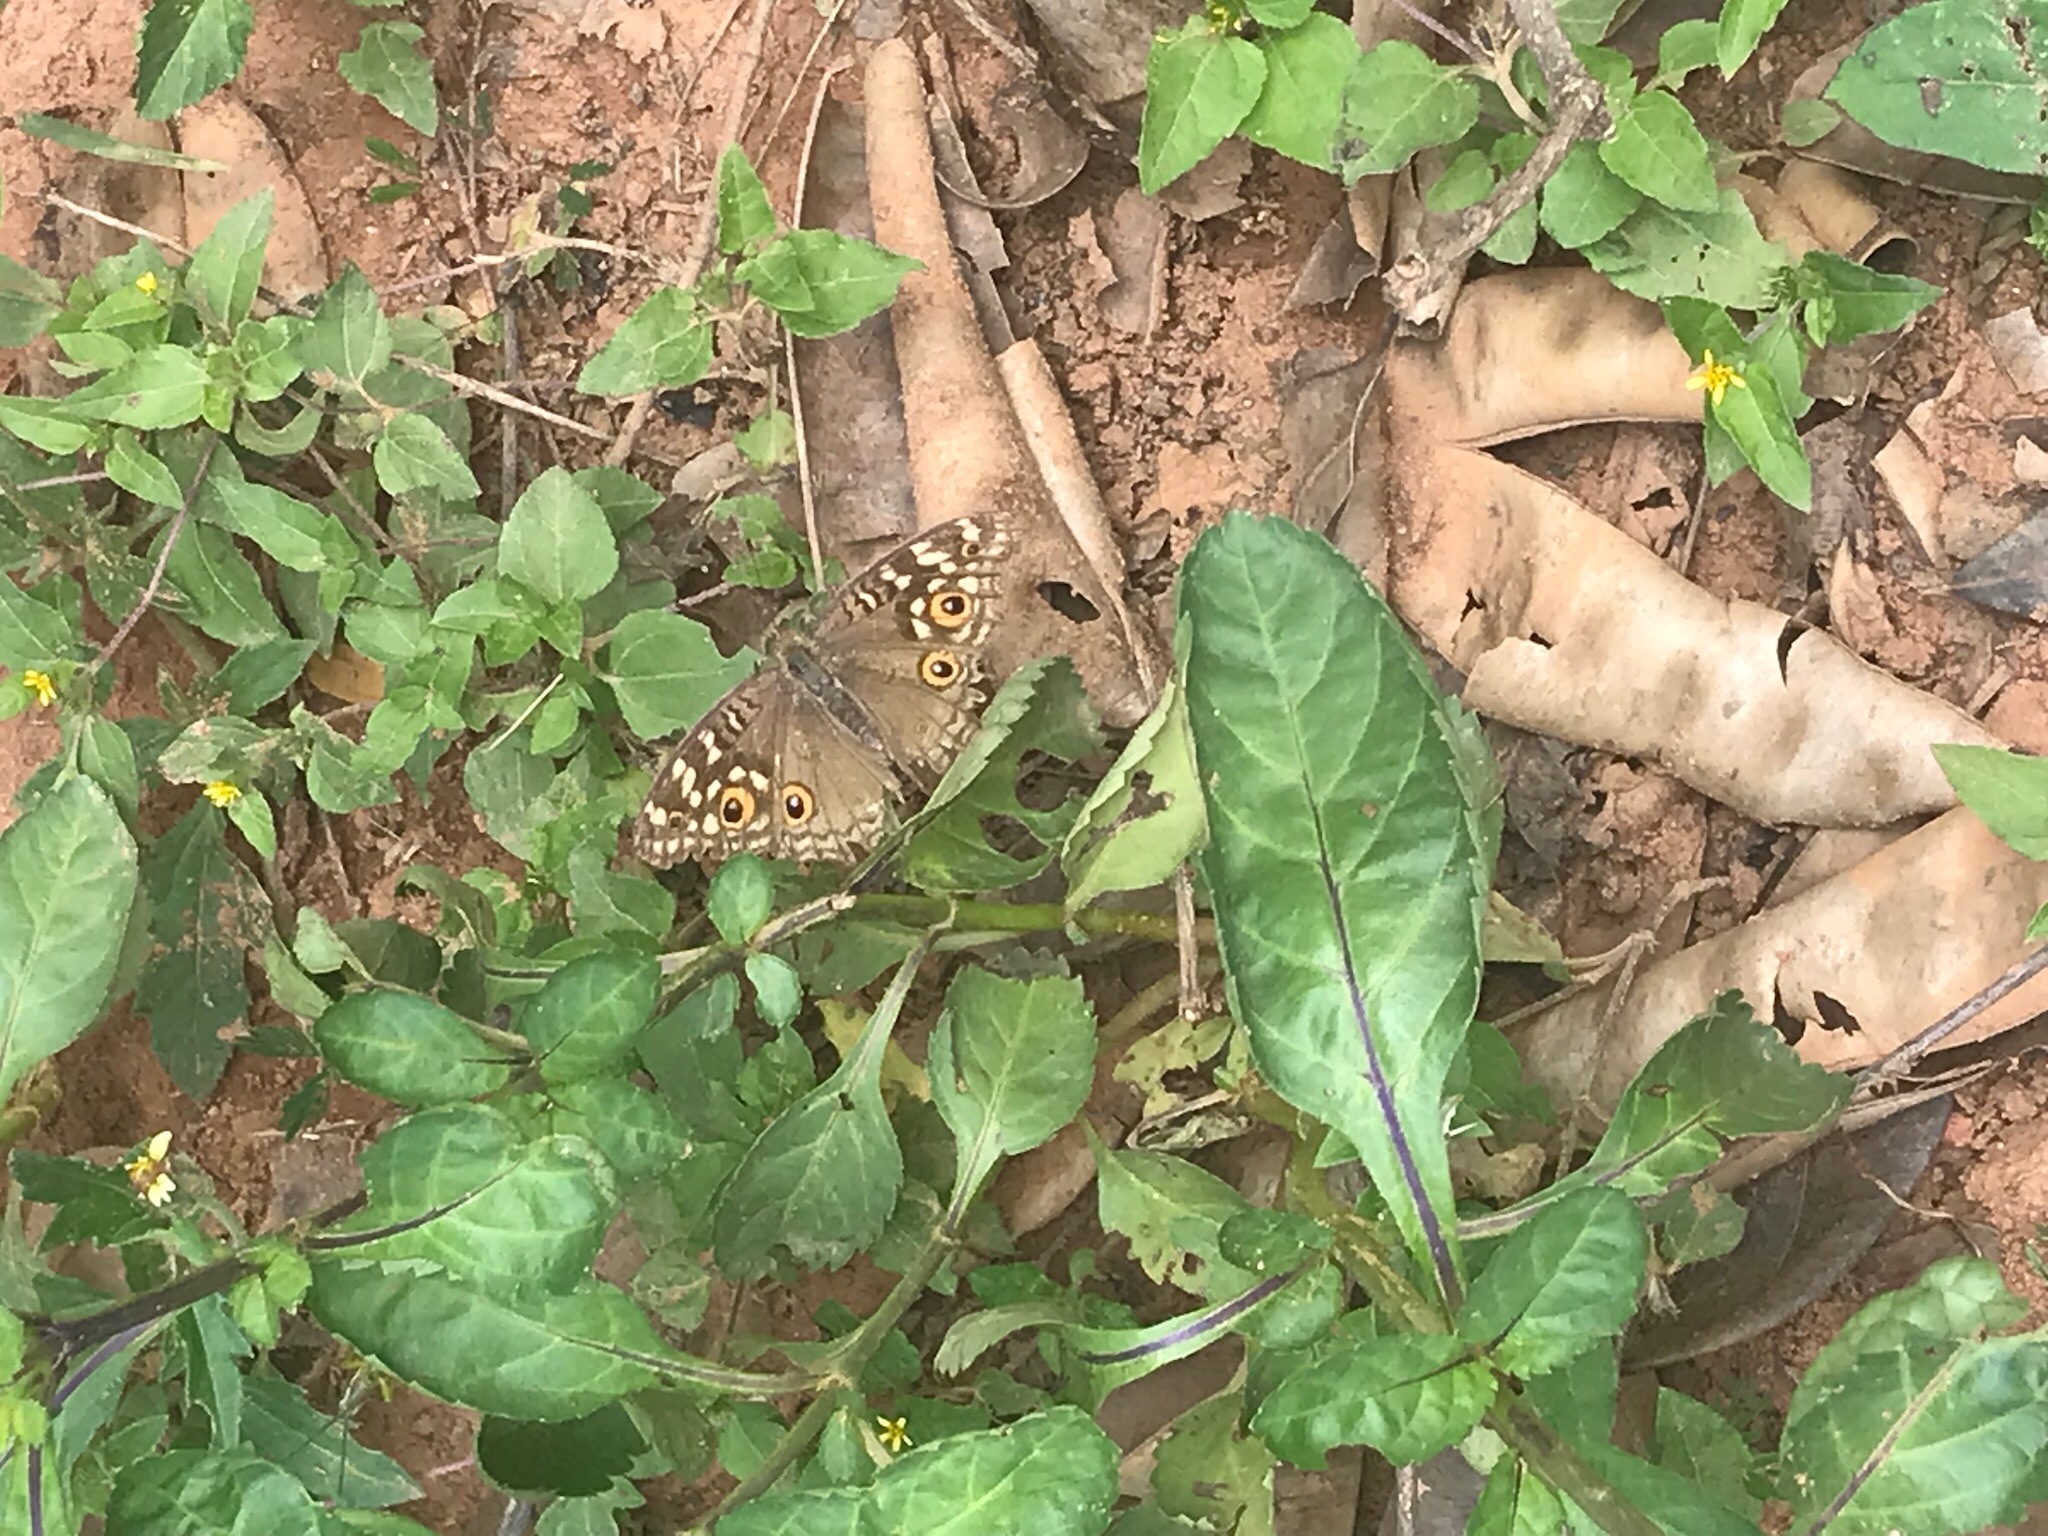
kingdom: Animalia
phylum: Arthropoda
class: Insecta
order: Lepidoptera
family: Nymphalidae
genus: Junonia
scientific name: Junonia lemonias
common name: Lemon pansy
